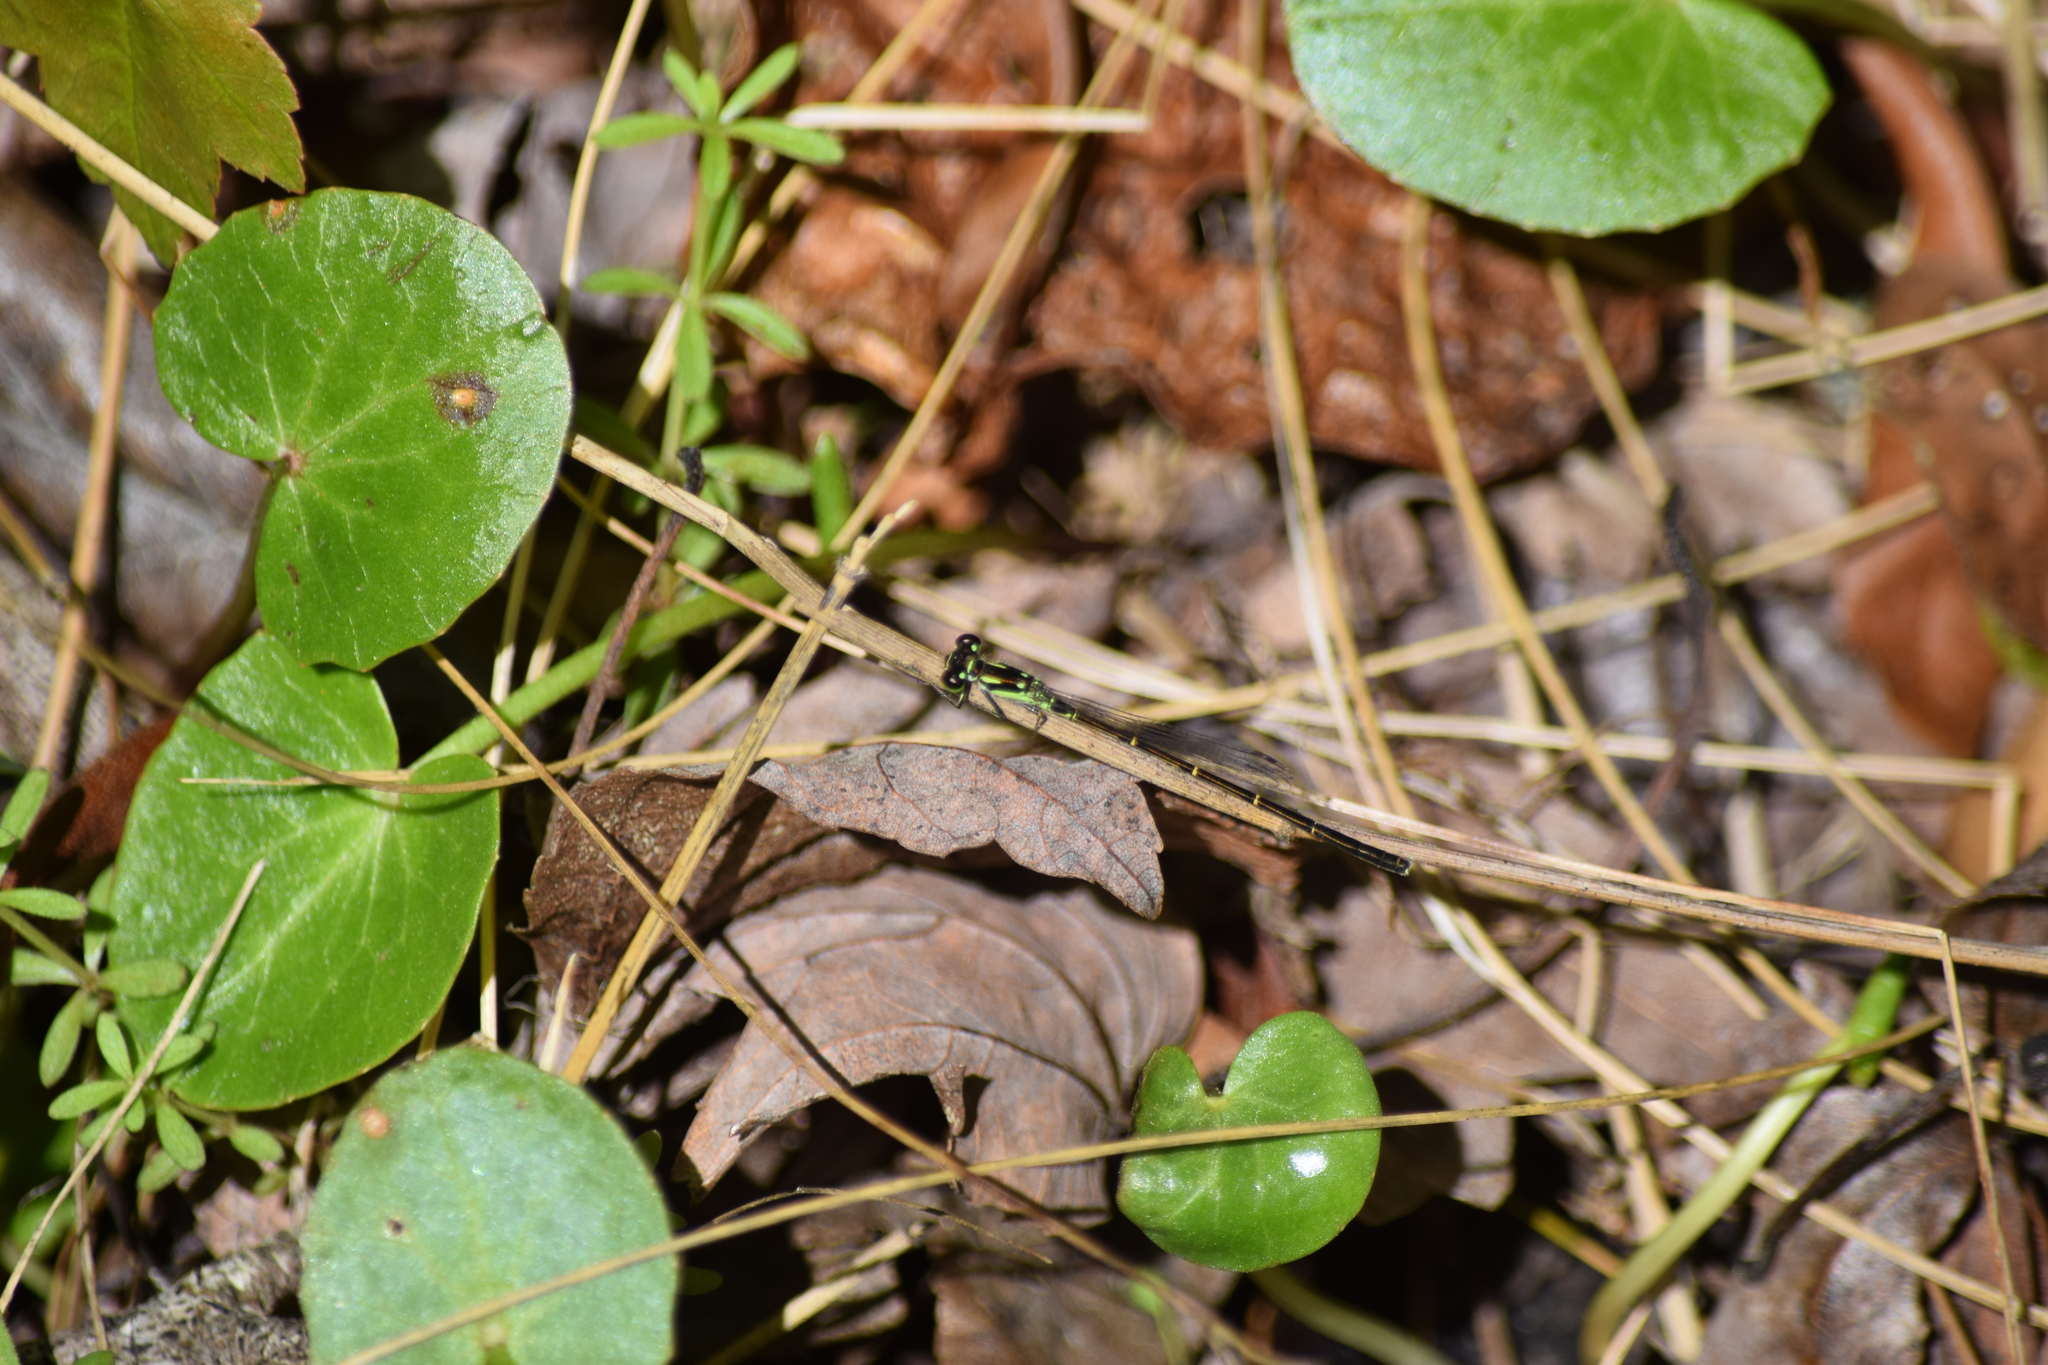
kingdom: Animalia
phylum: Arthropoda
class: Insecta
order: Odonata
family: Coenagrionidae
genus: Ischnura
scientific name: Ischnura posita
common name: Fragile forktail
